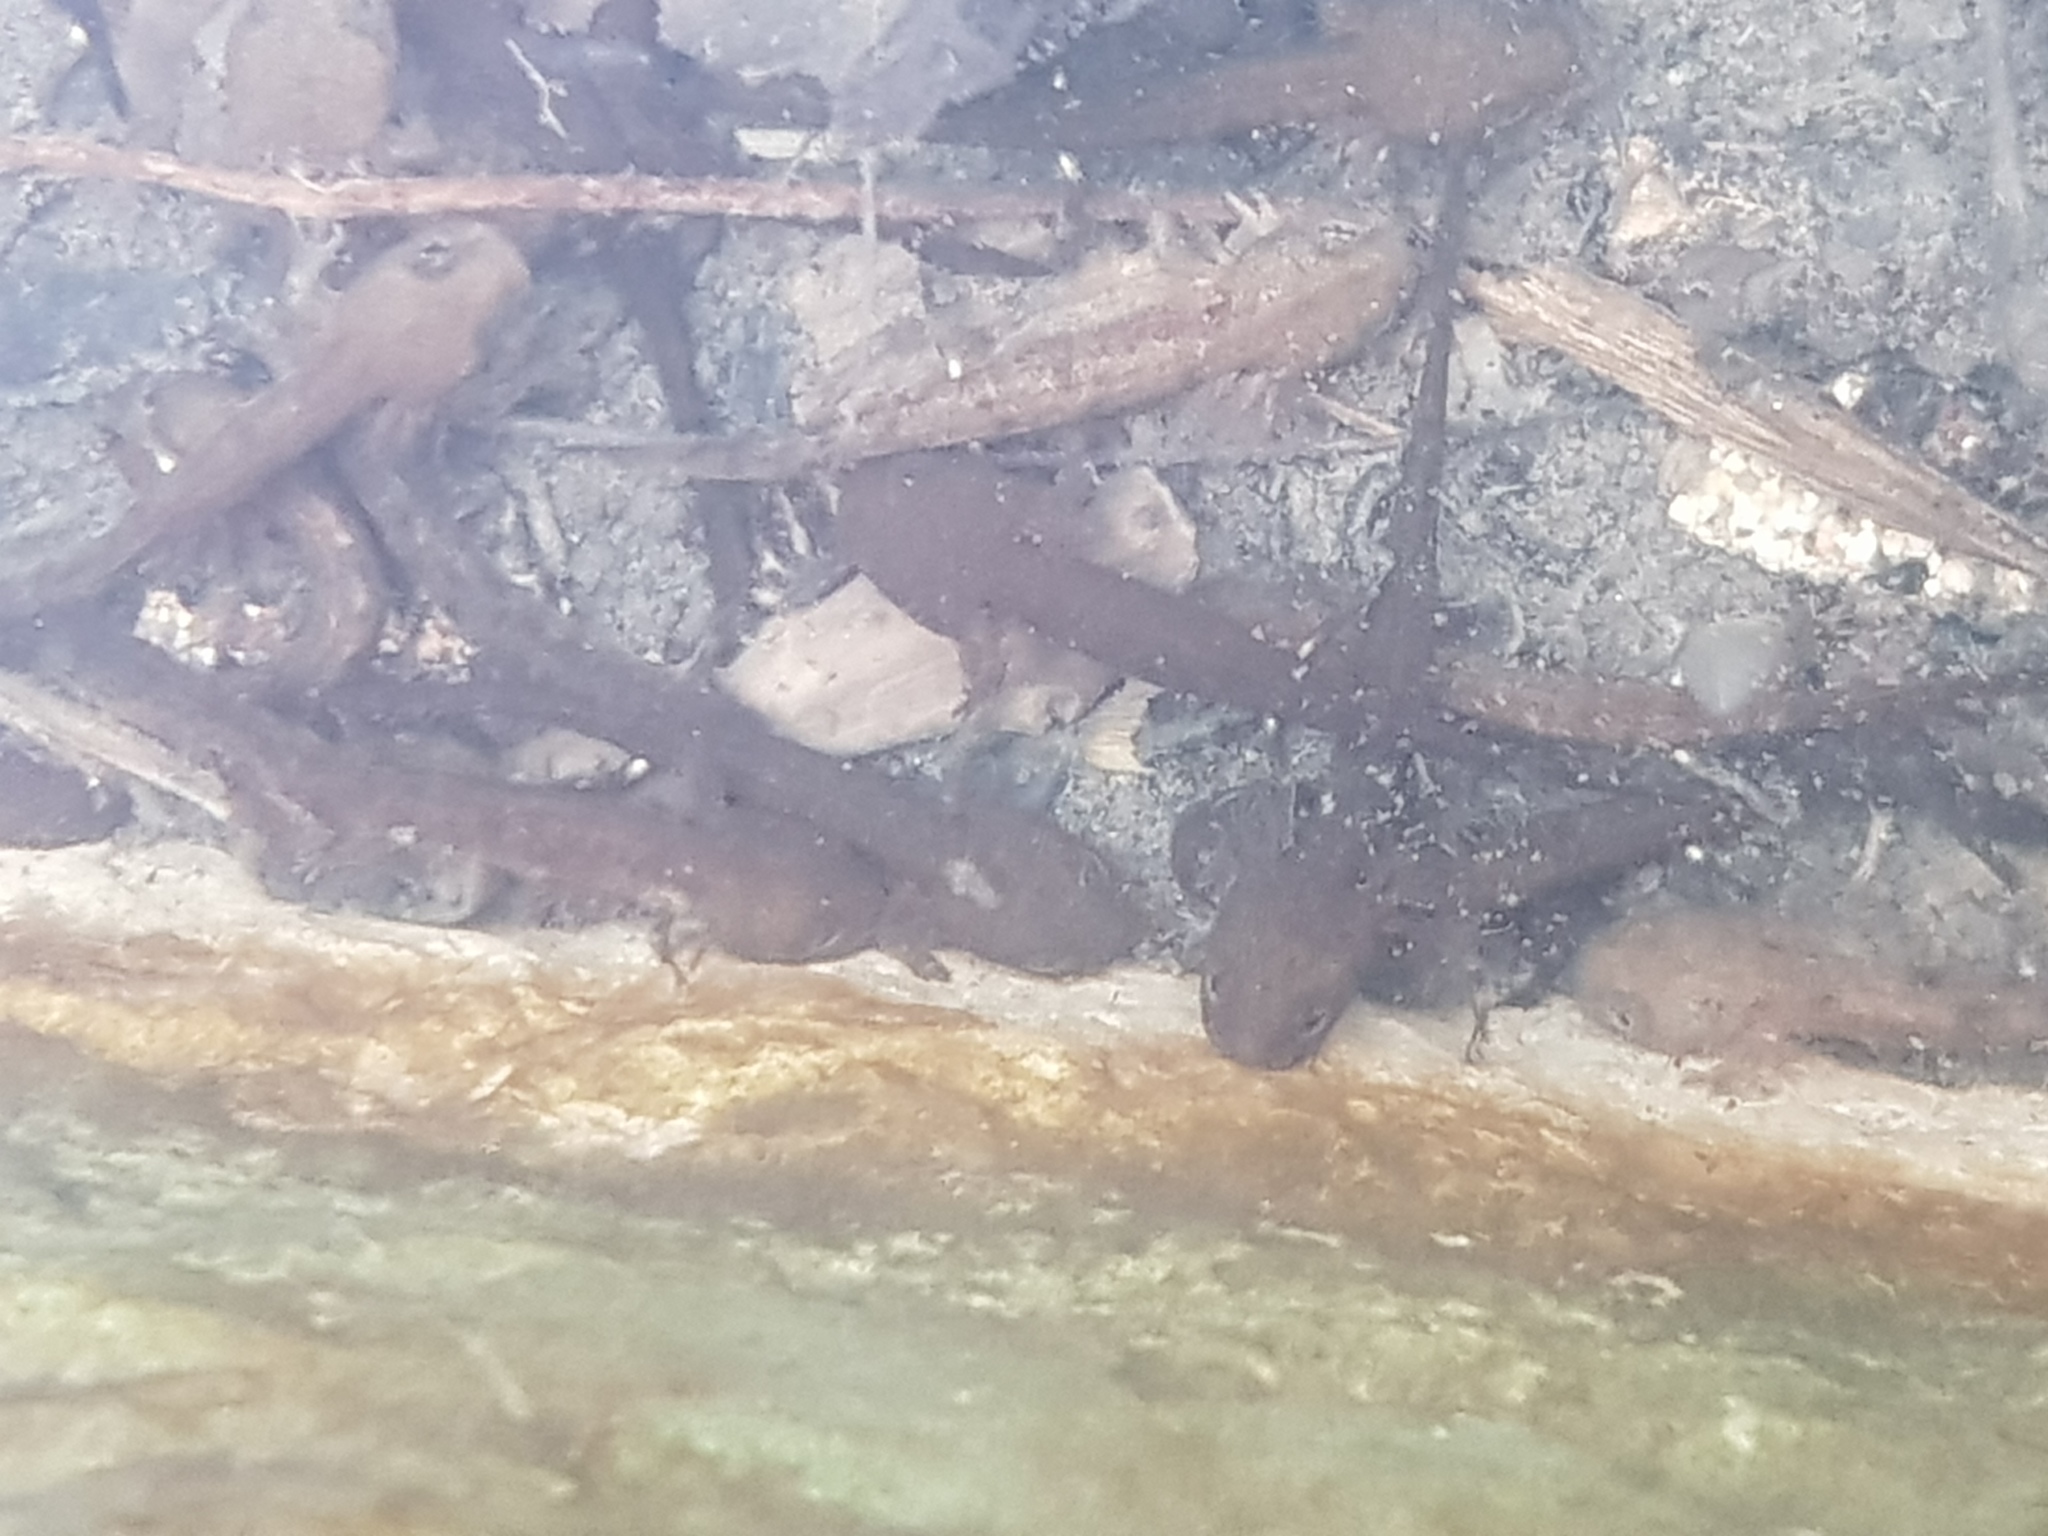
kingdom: Animalia
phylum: Chordata
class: Amphibia
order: Caudata
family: Salamandridae
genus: Salamandra
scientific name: Salamandra salamandra
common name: Fire salamander
